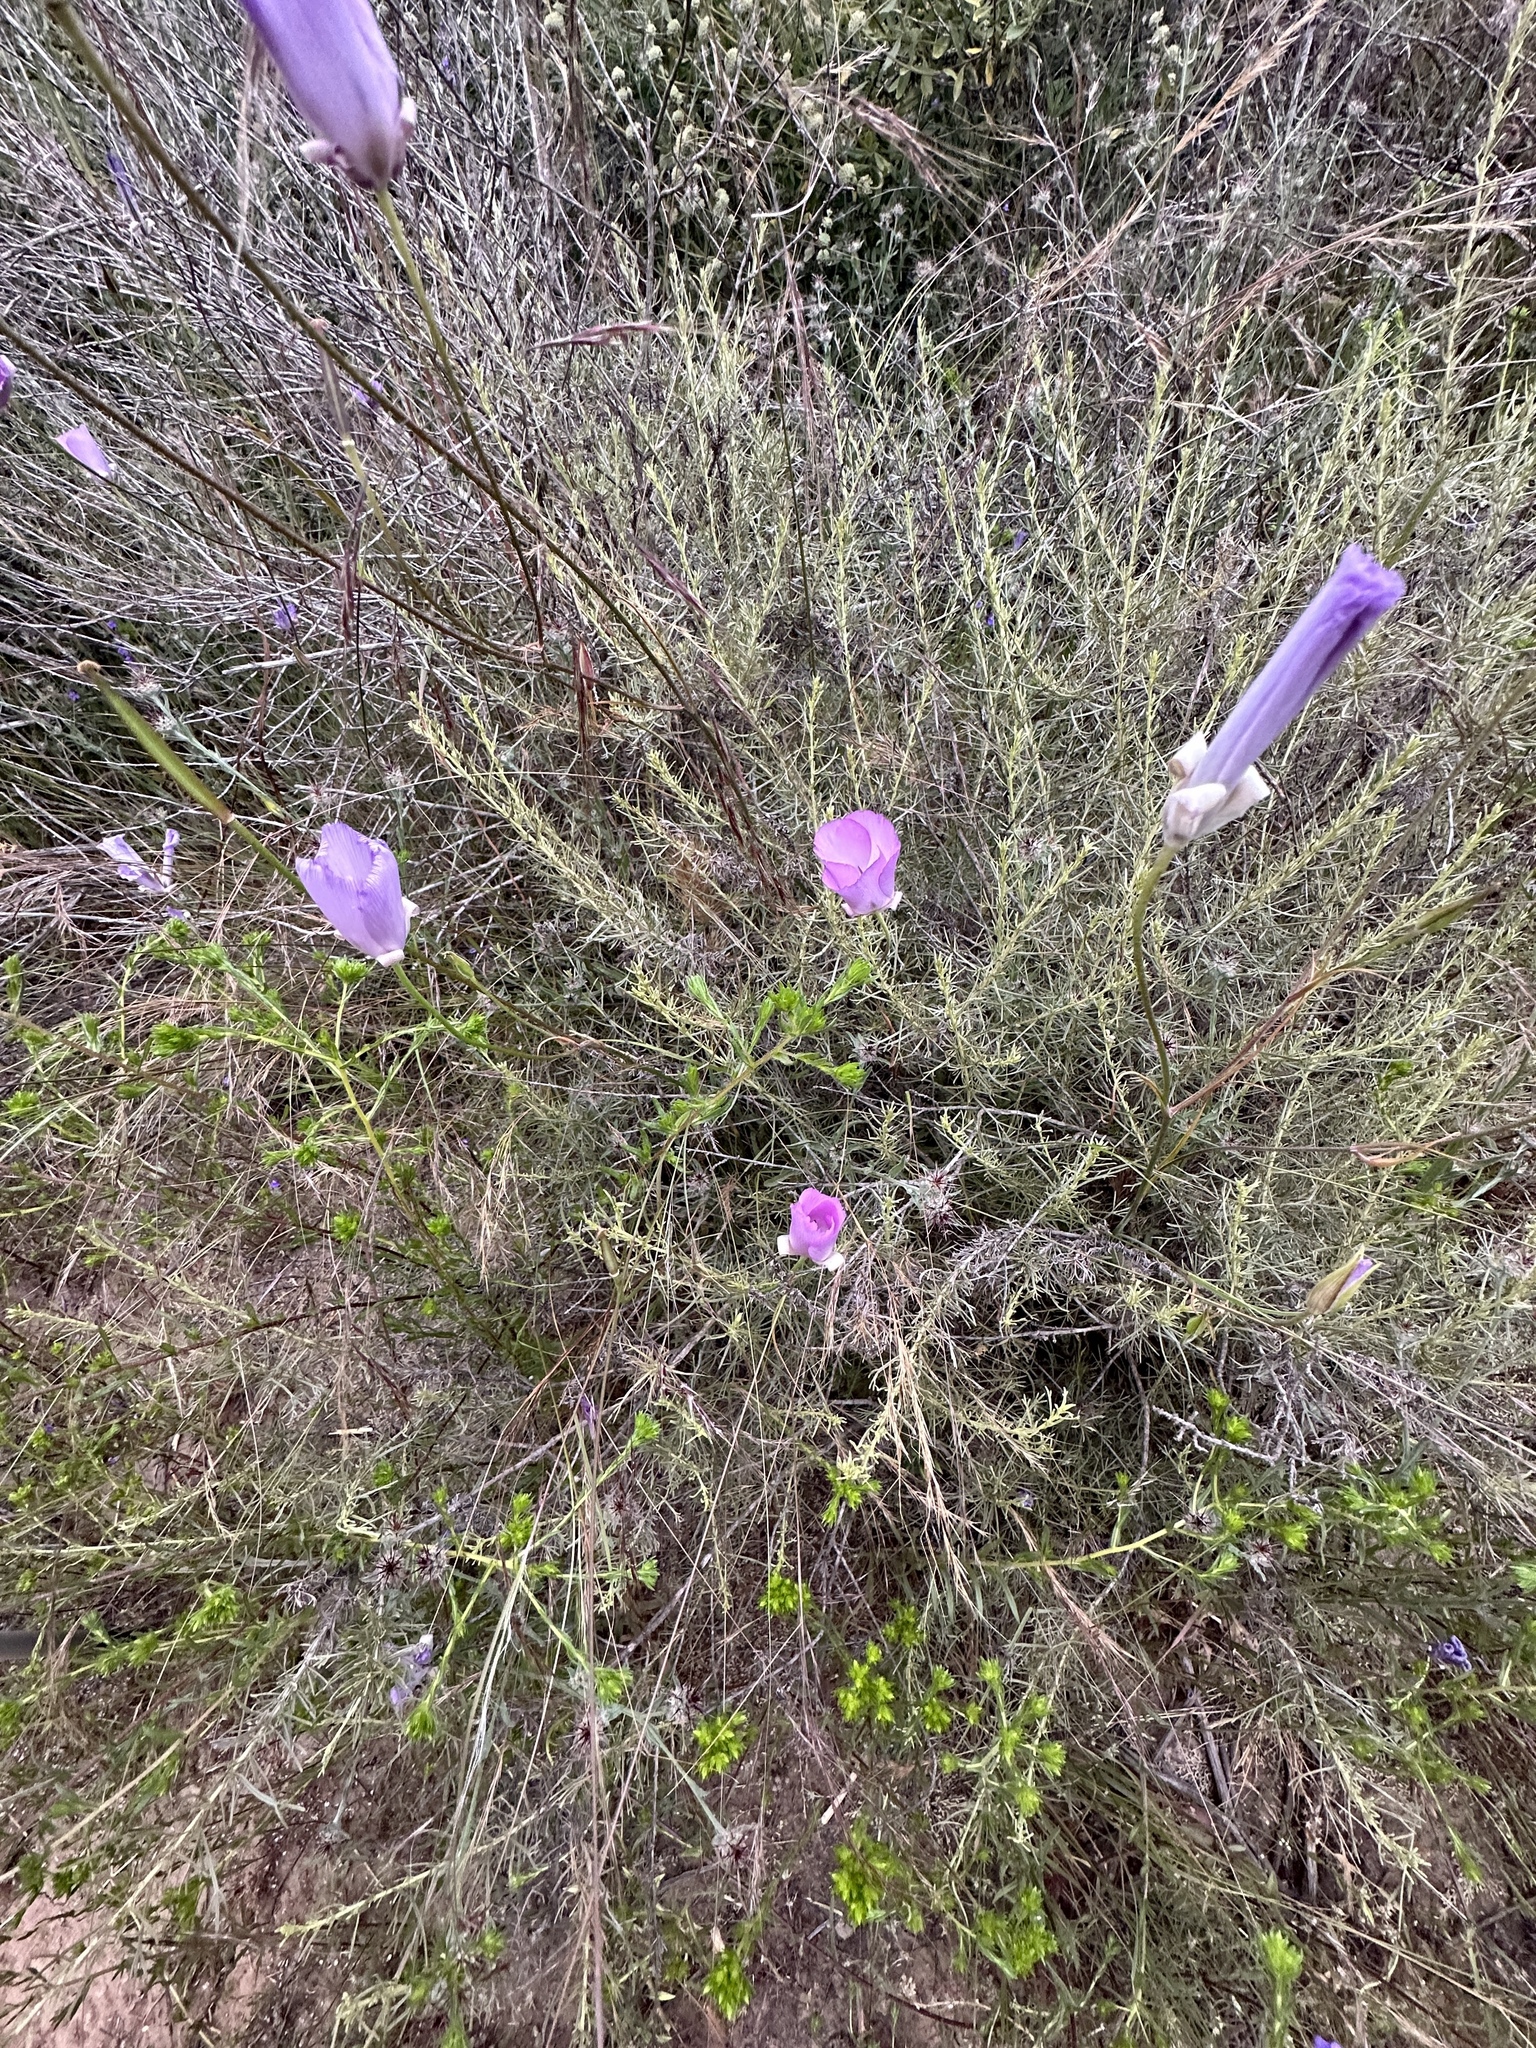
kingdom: Plantae
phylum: Tracheophyta
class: Liliopsida
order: Liliales
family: Liliaceae
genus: Calochortus
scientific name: Calochortus splendens
